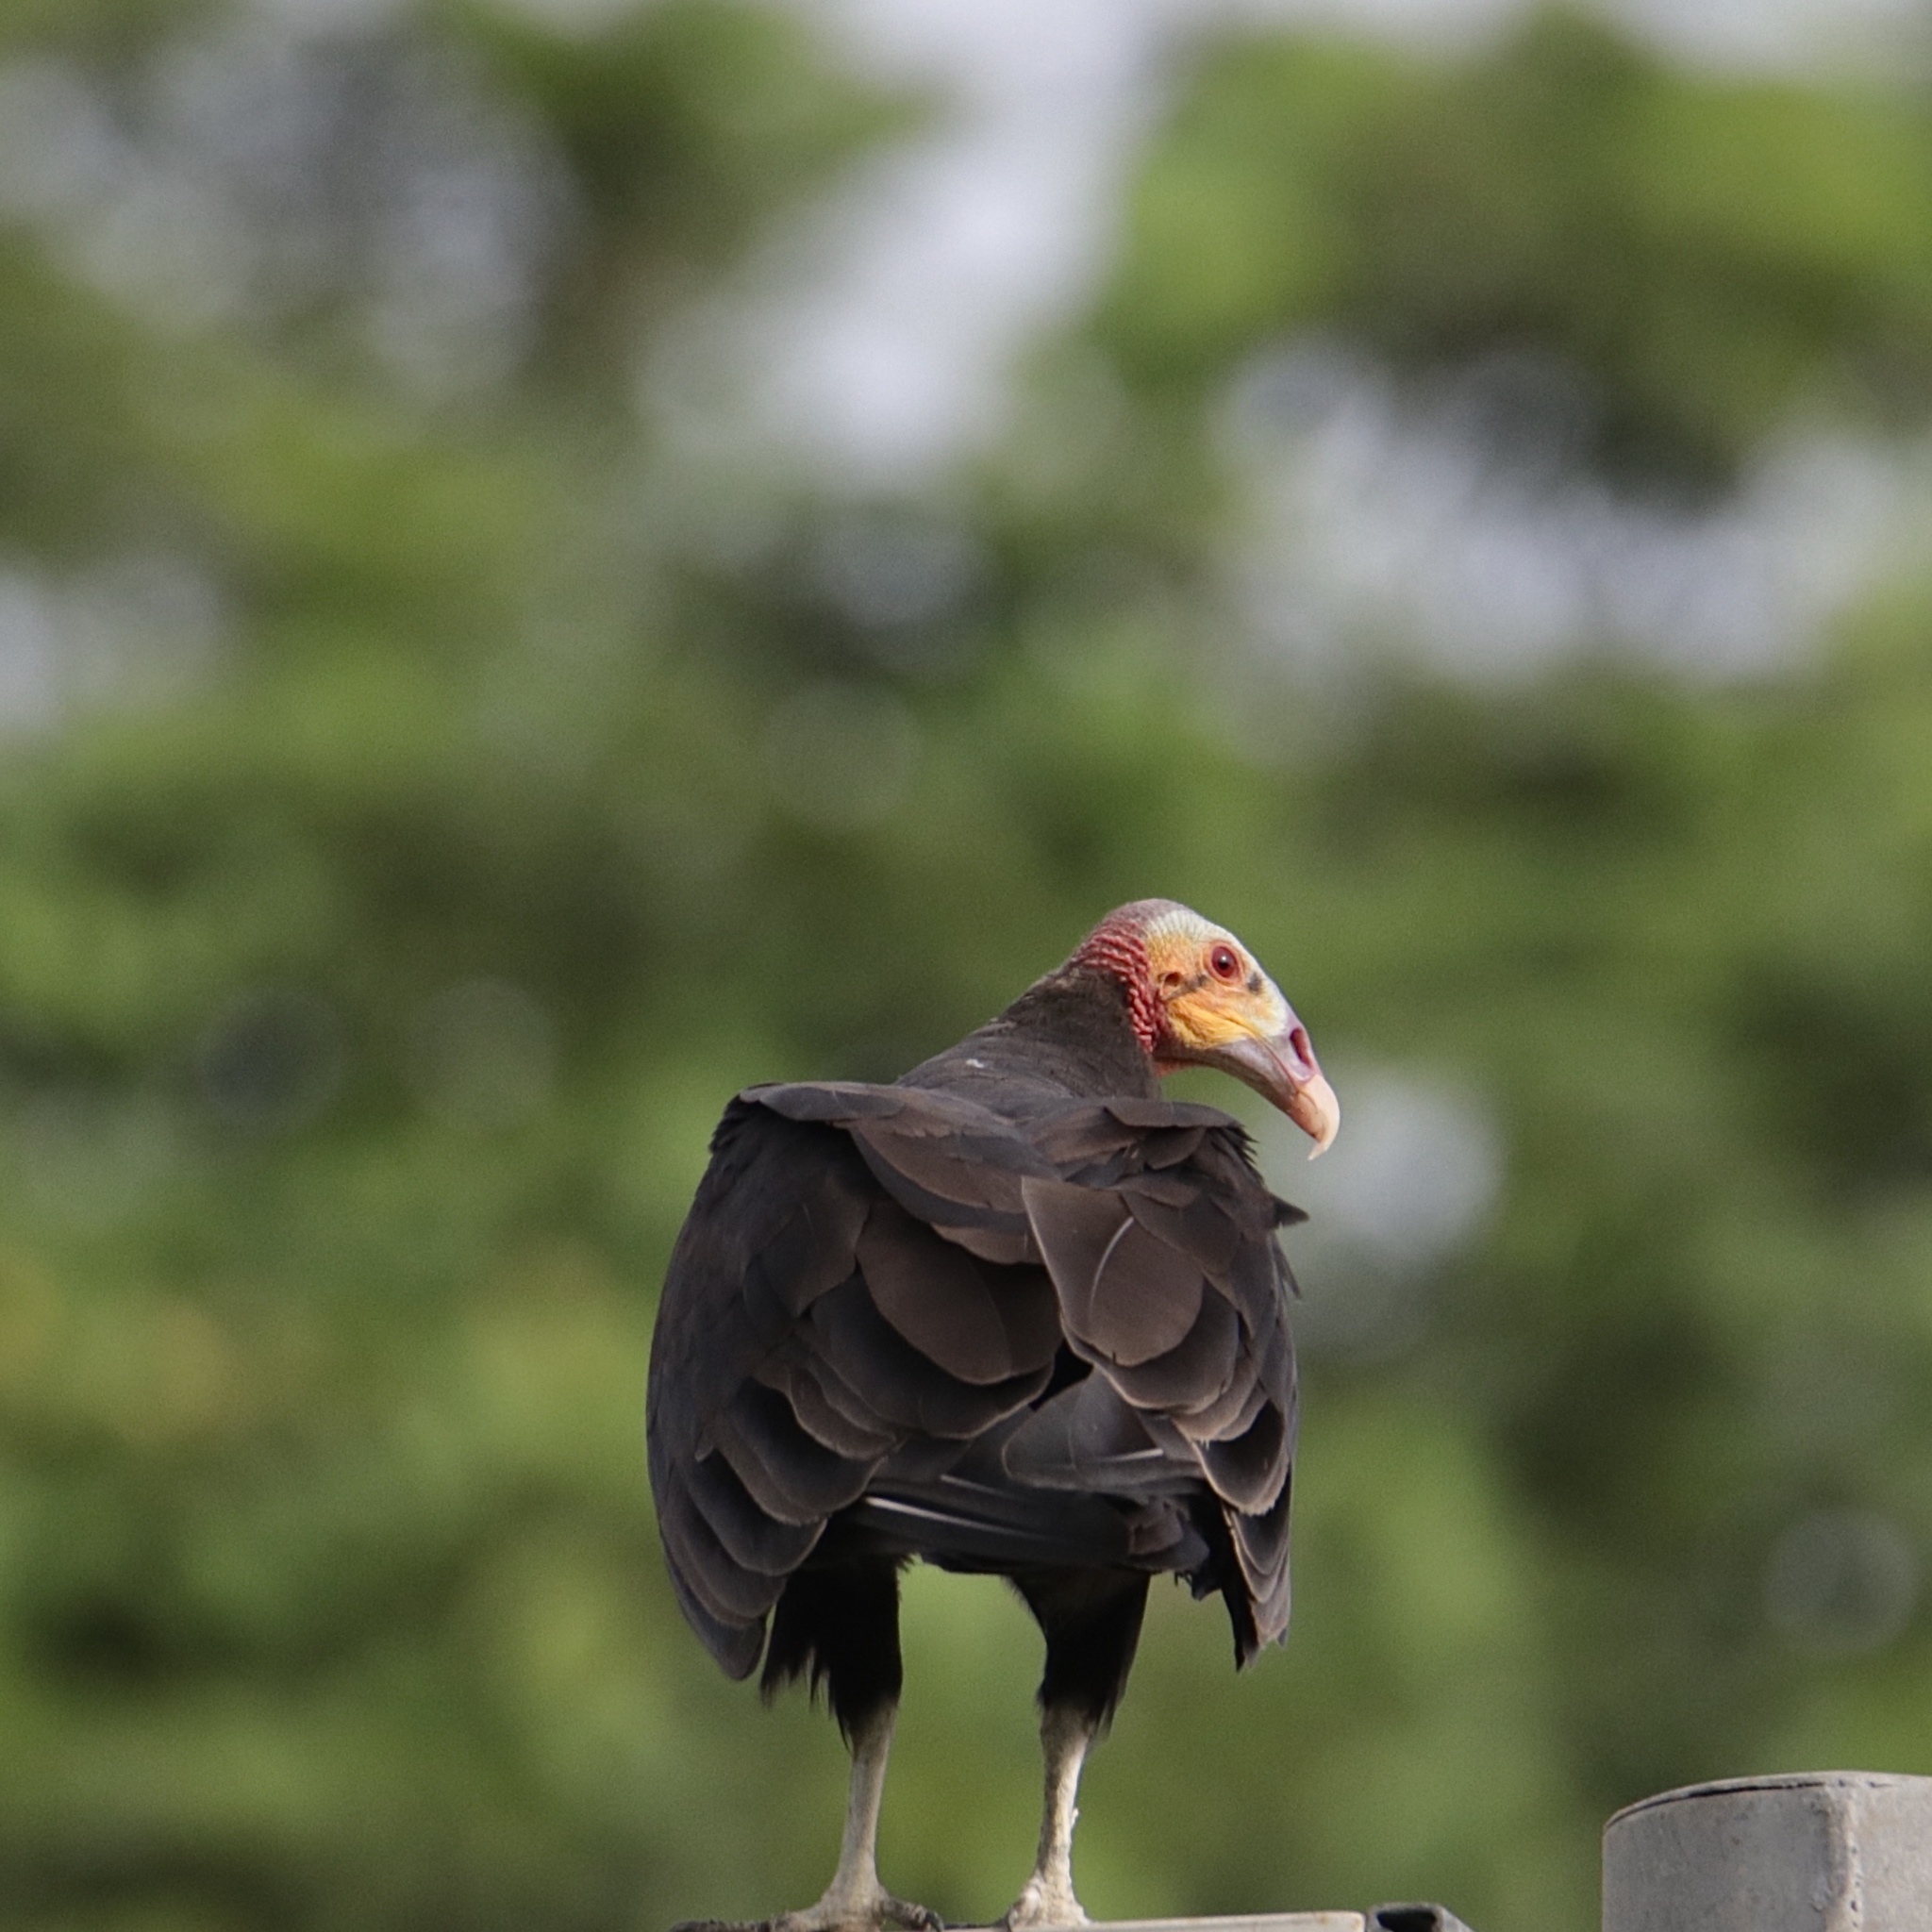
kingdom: Animalia
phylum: Chordata
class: Aves
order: Accipitriformes
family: Cathartidae
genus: Cathartes
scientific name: Cathartes burrovianus
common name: Lesser yellow-headed vulture
